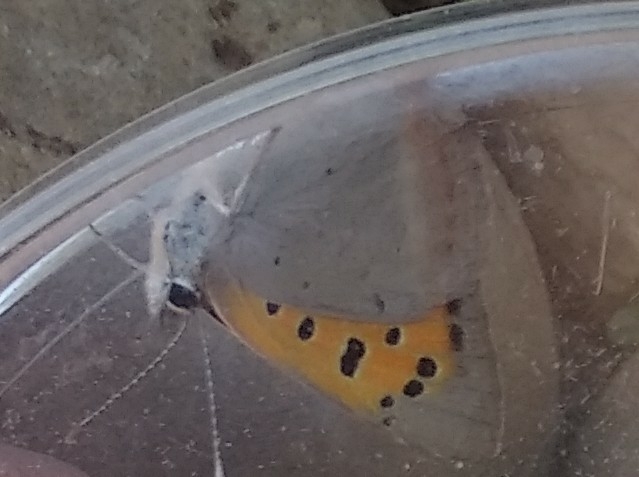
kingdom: Animalia
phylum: Arthropoda
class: Insecta
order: Lepidoptera
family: Lycaenidae
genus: Lycaena
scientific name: Lycaena phlaeas
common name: Small copper
